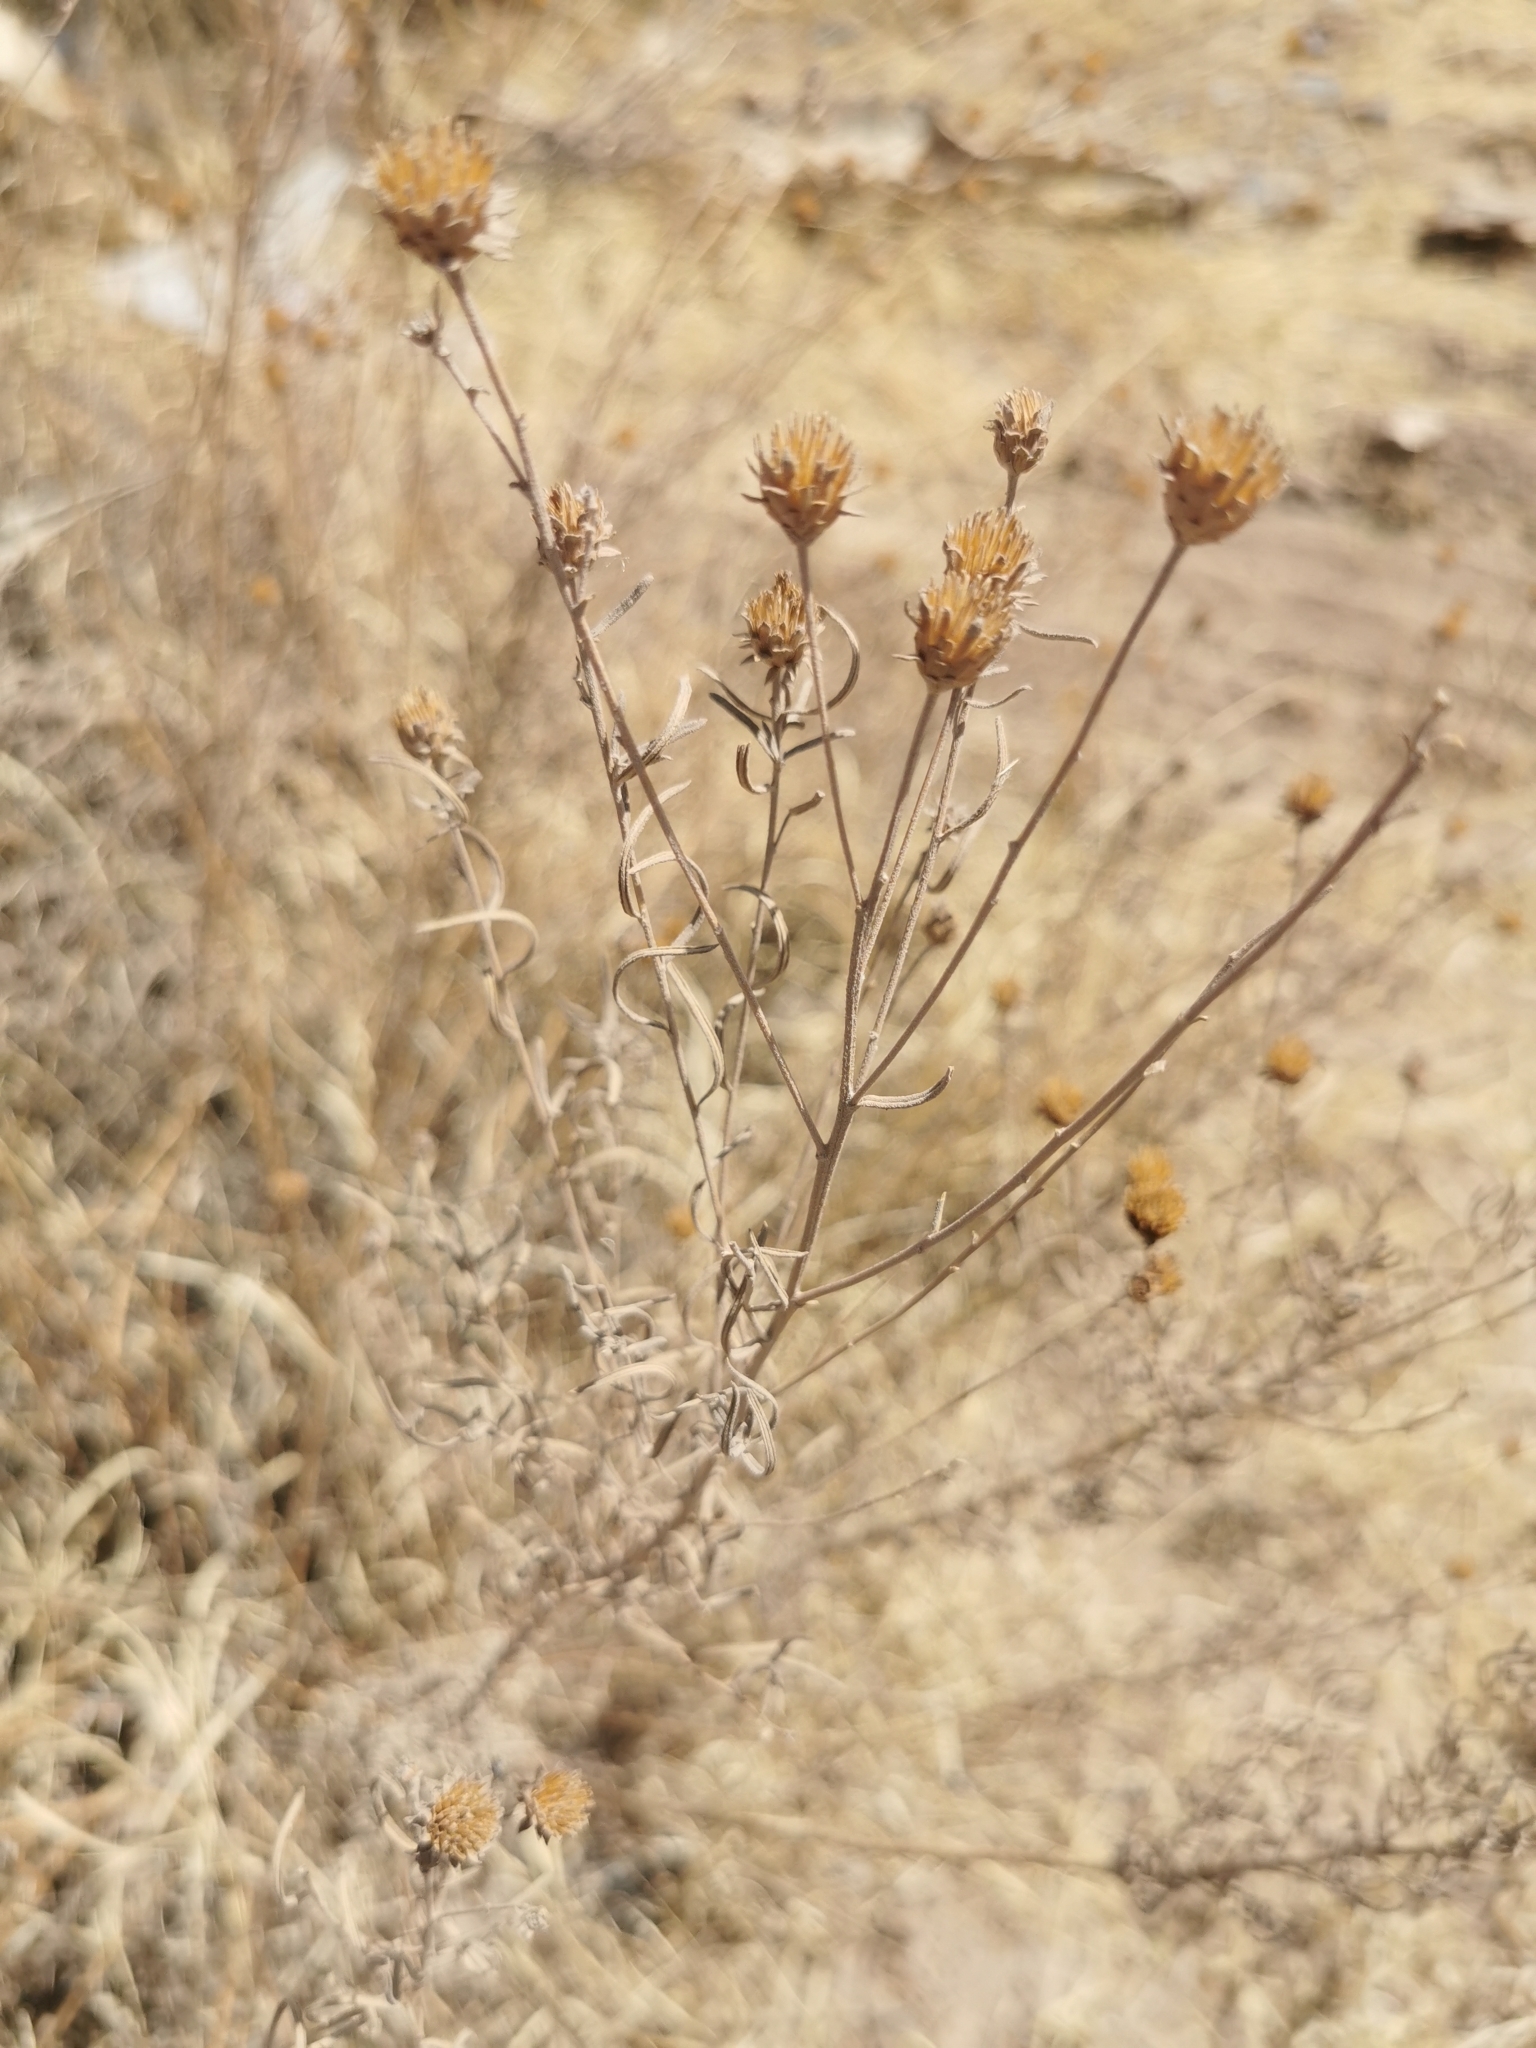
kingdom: Plantae
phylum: Tracheophyta
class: Magnoliopsida
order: Asterales
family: Asteraceae
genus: Aldama
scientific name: Aldama linearis
